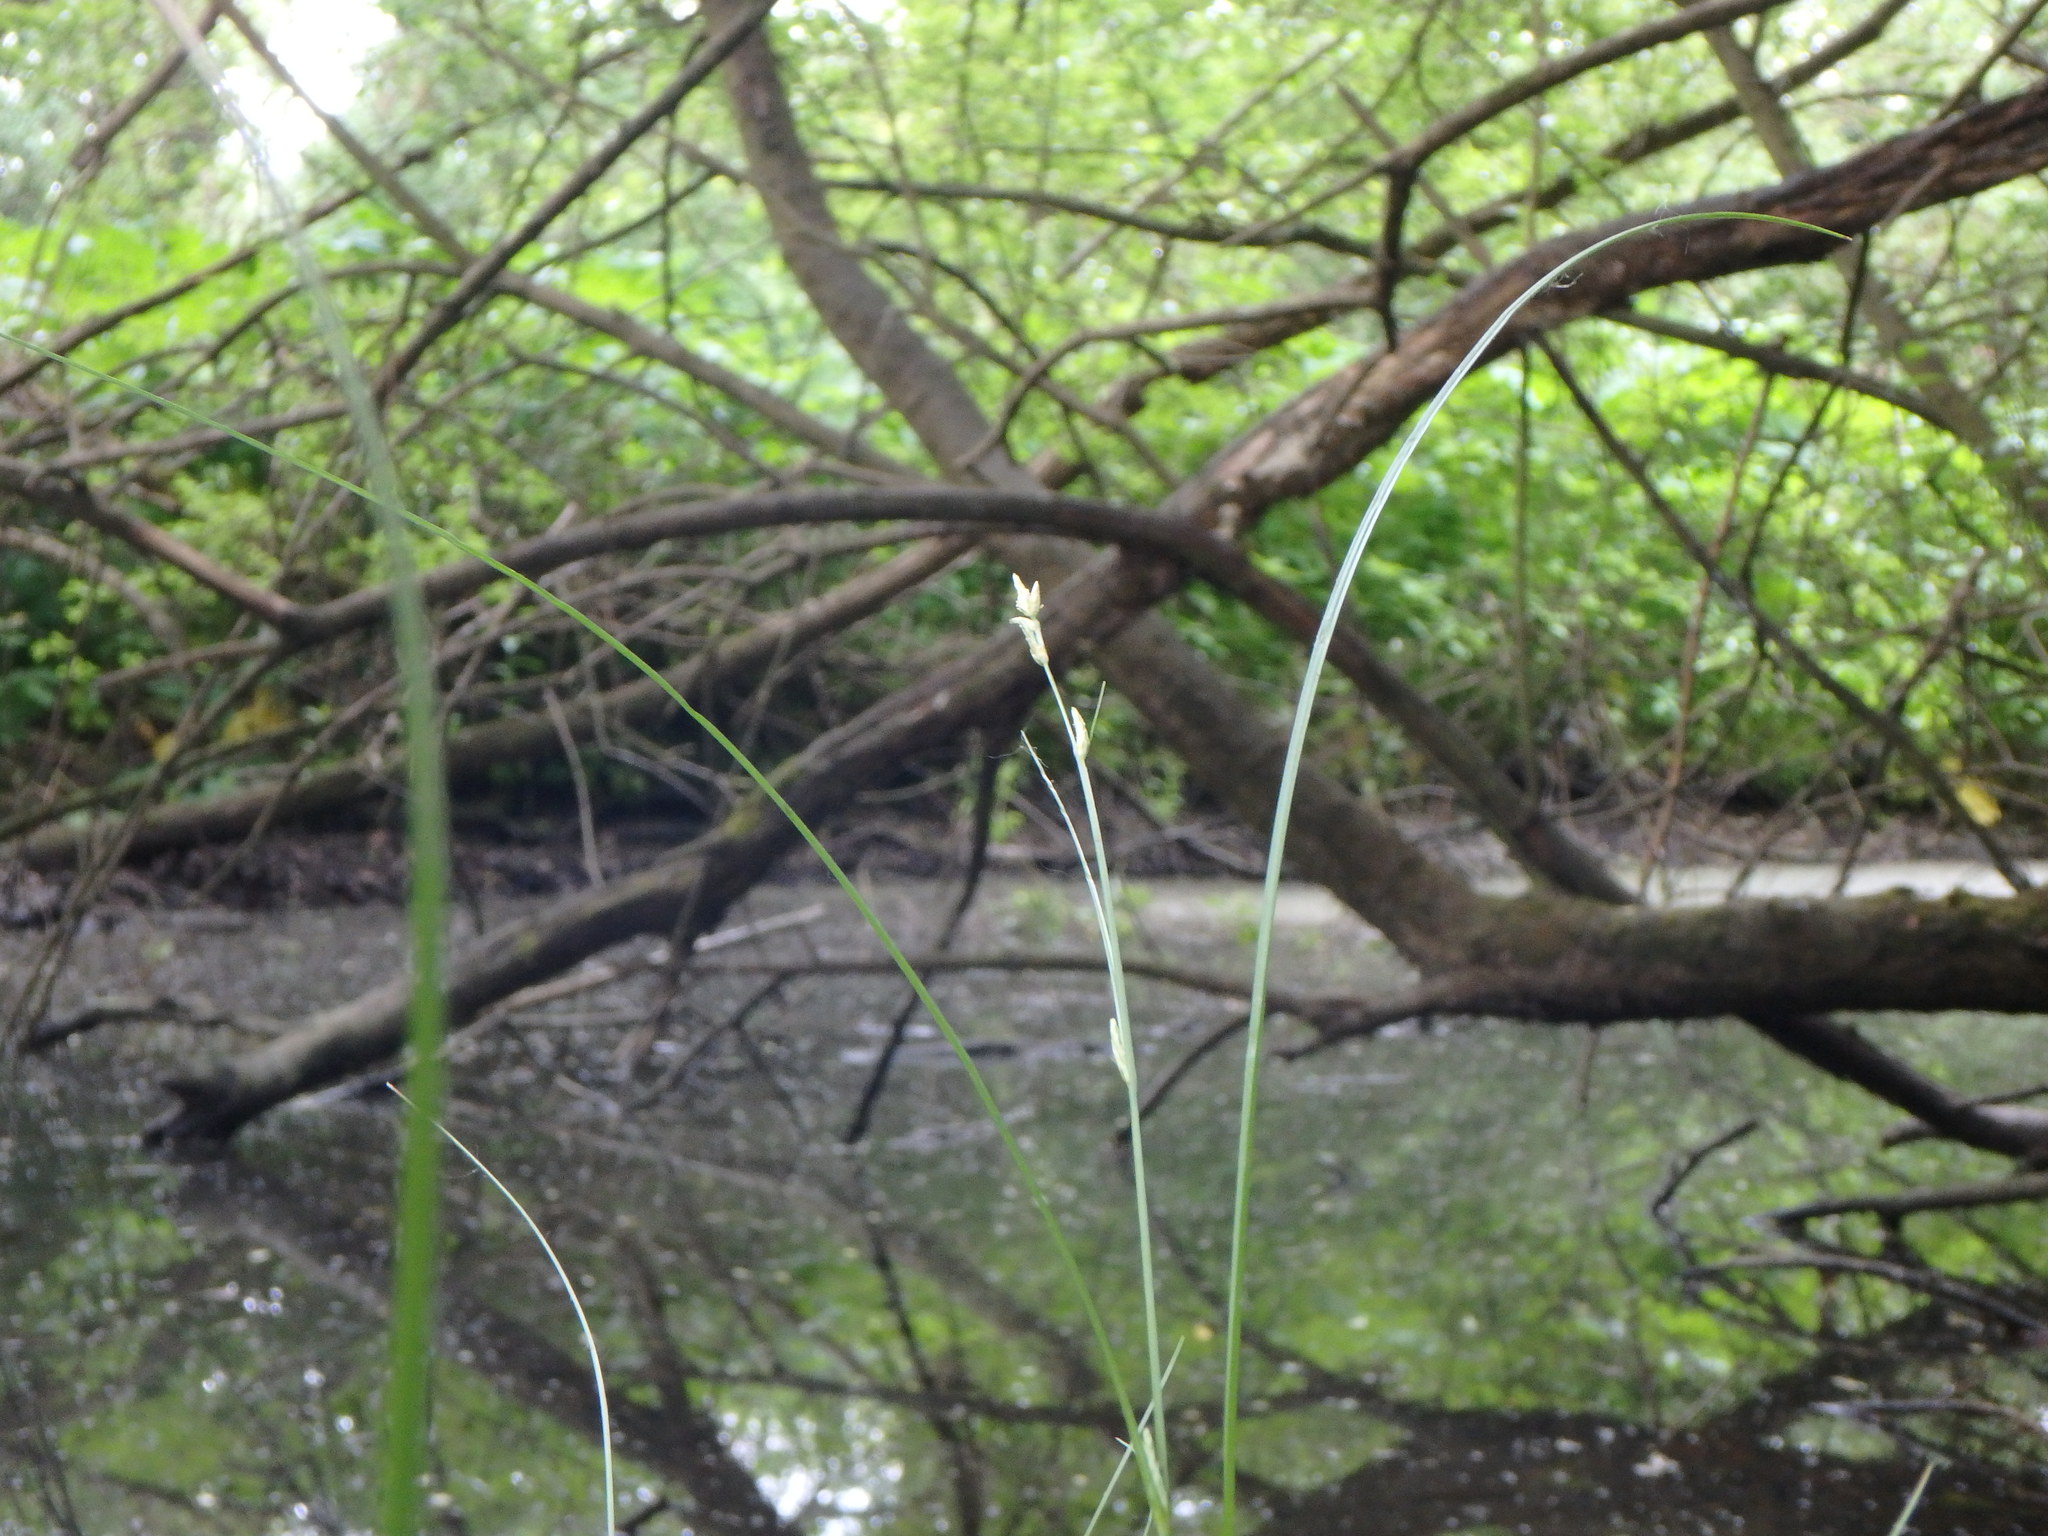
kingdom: Plantae
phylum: Tracheophyta
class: Liliopsida
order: Poales
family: Cyperaceae
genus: Carex
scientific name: Carex remota
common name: Remote sedge
